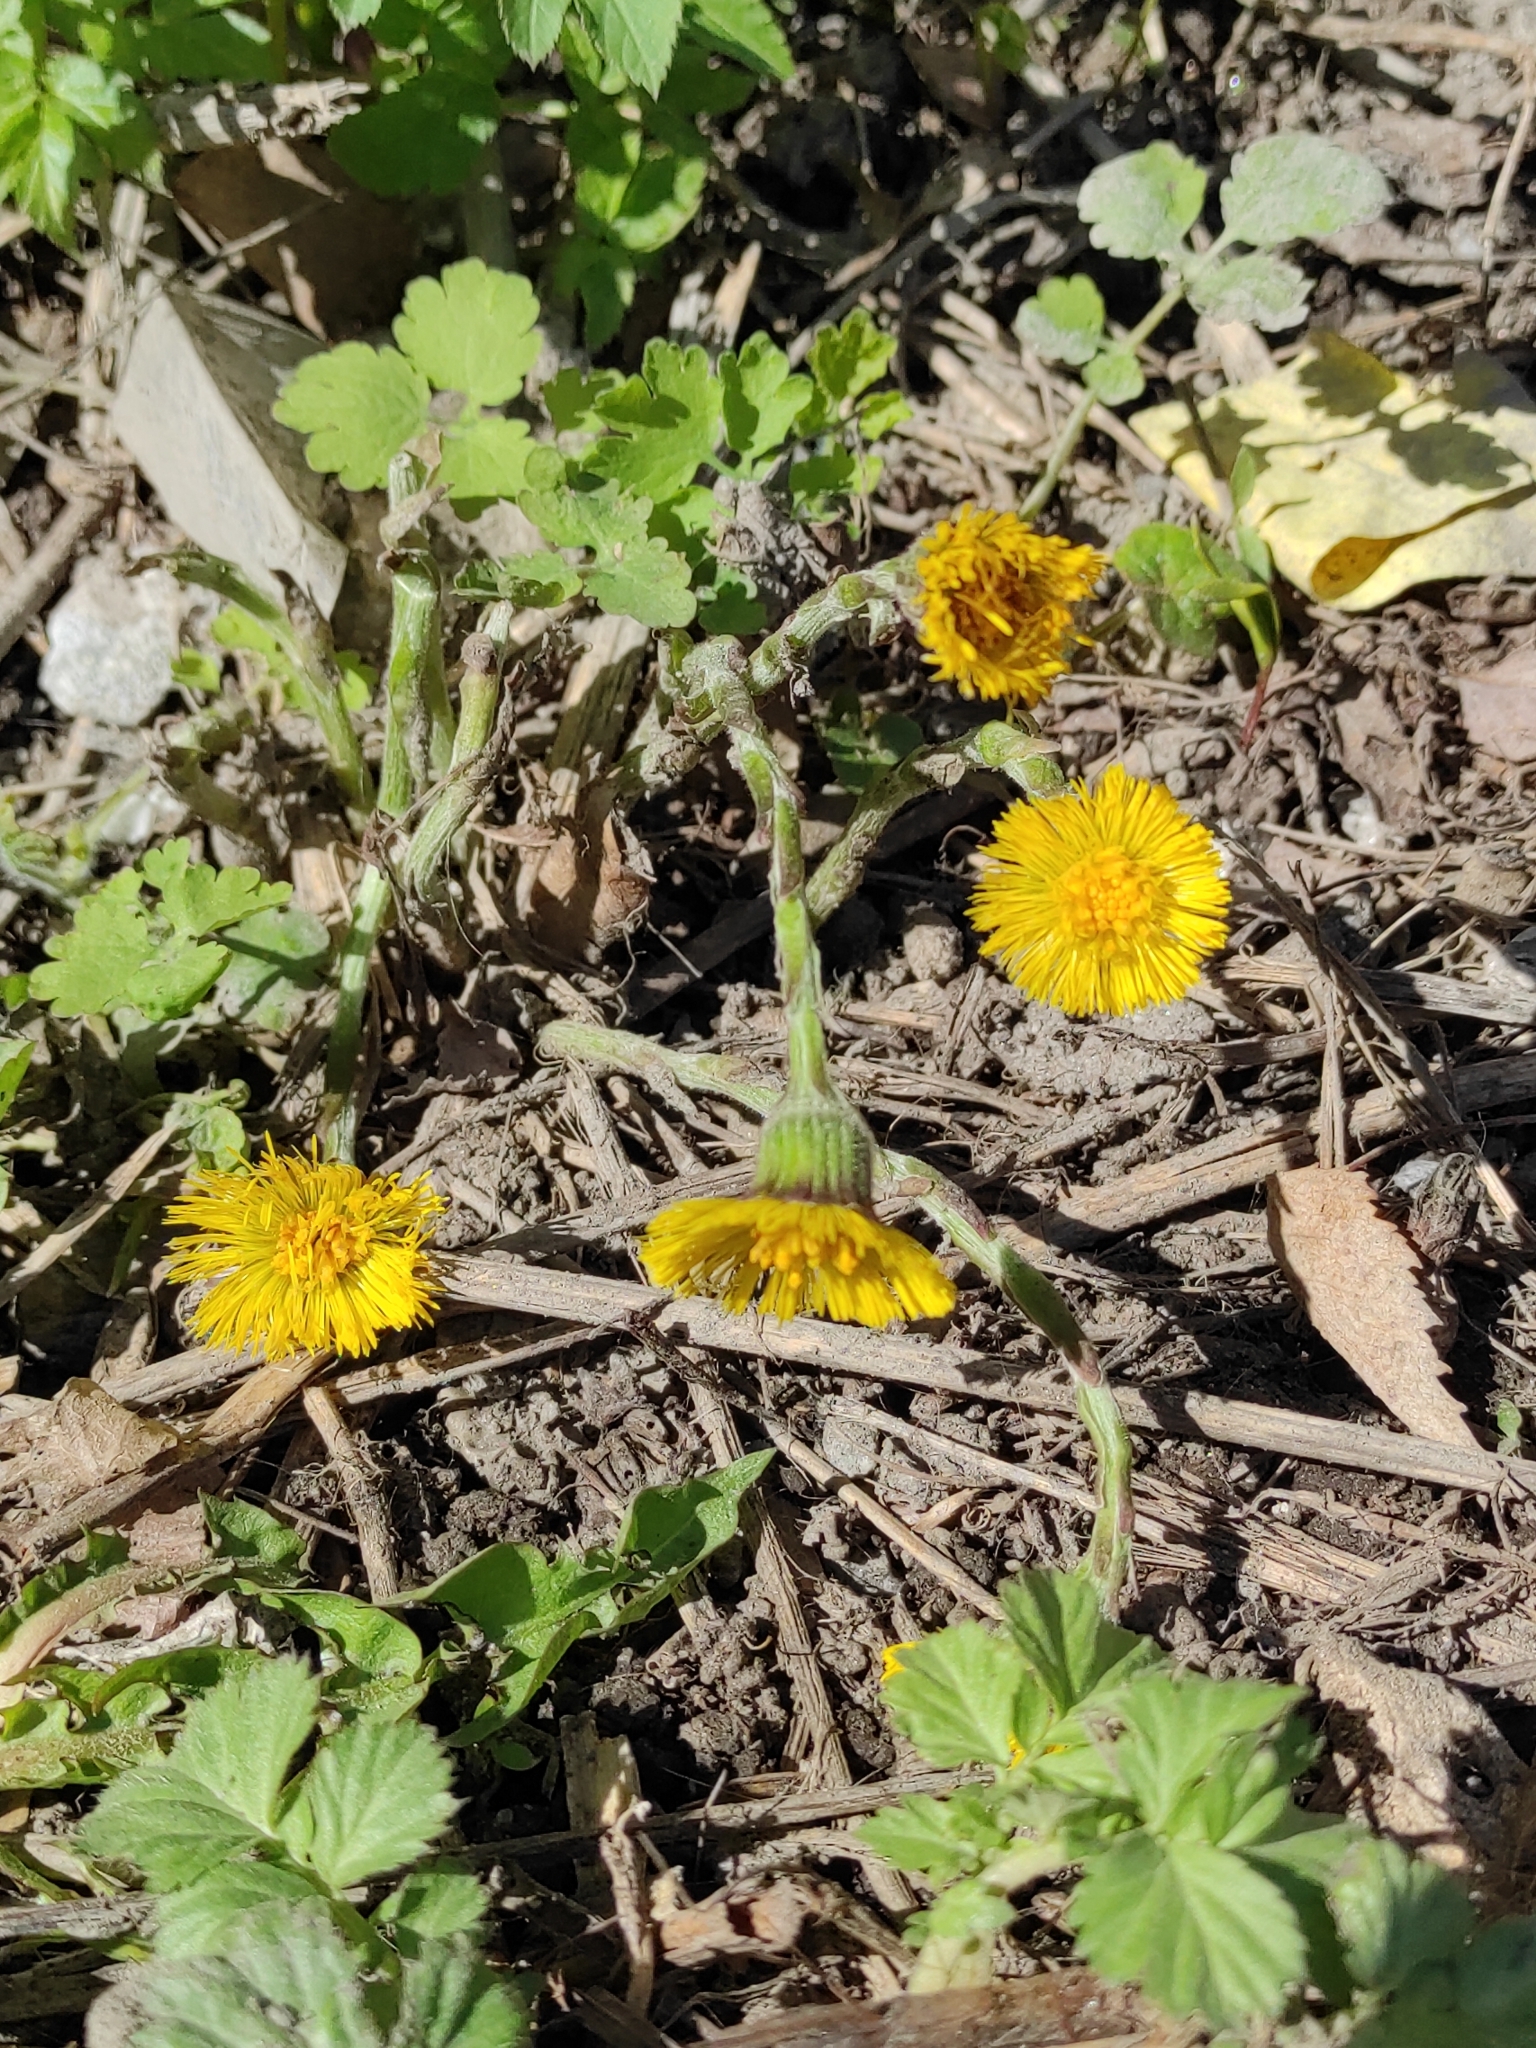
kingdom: Plantae
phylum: Tracheophyta
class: Magnoliopsida
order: Asterales
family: Asteraceae
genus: Tussilago
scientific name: Tussilago farfara
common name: Coltsfoot
